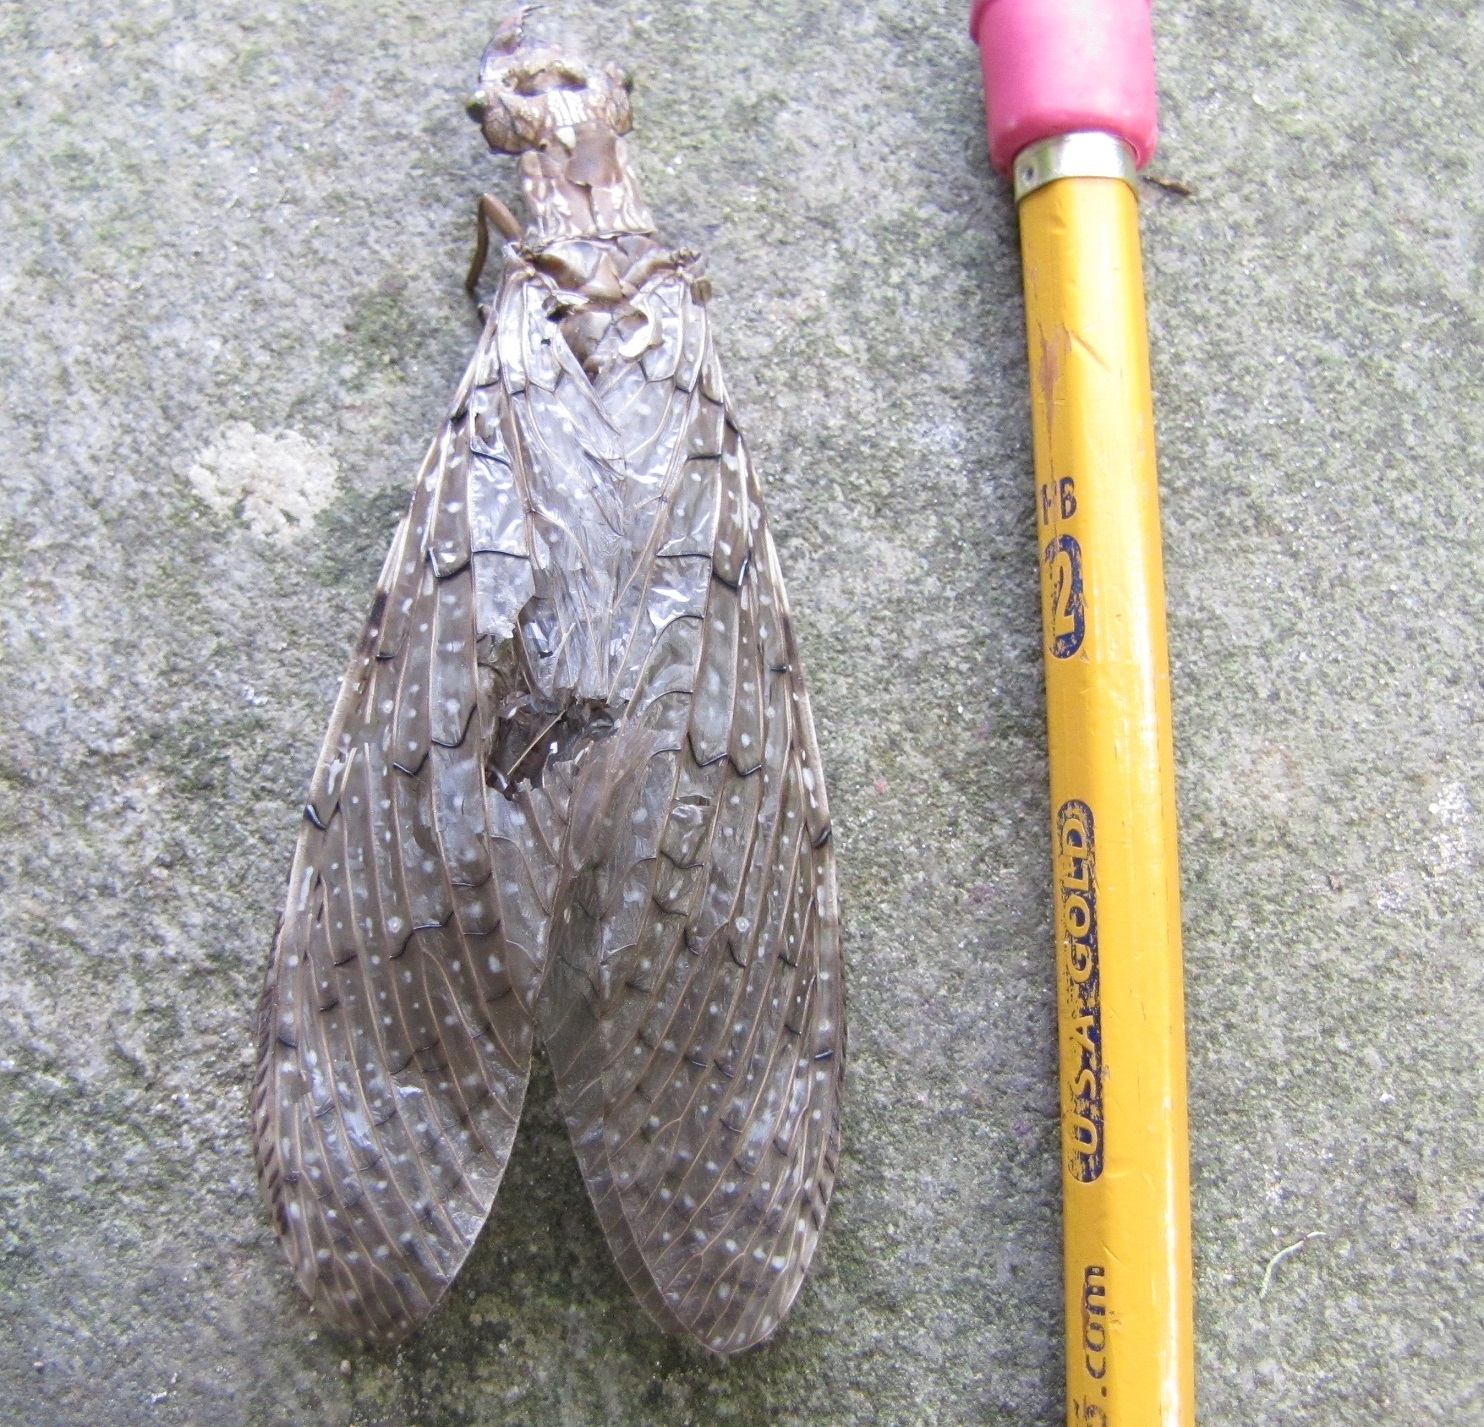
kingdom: Animalia
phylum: Arthropoda
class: Insecta
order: Megaloptera
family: Corydalidae
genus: Corydalus
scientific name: Corydalus cornutus
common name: Dobsonfly
